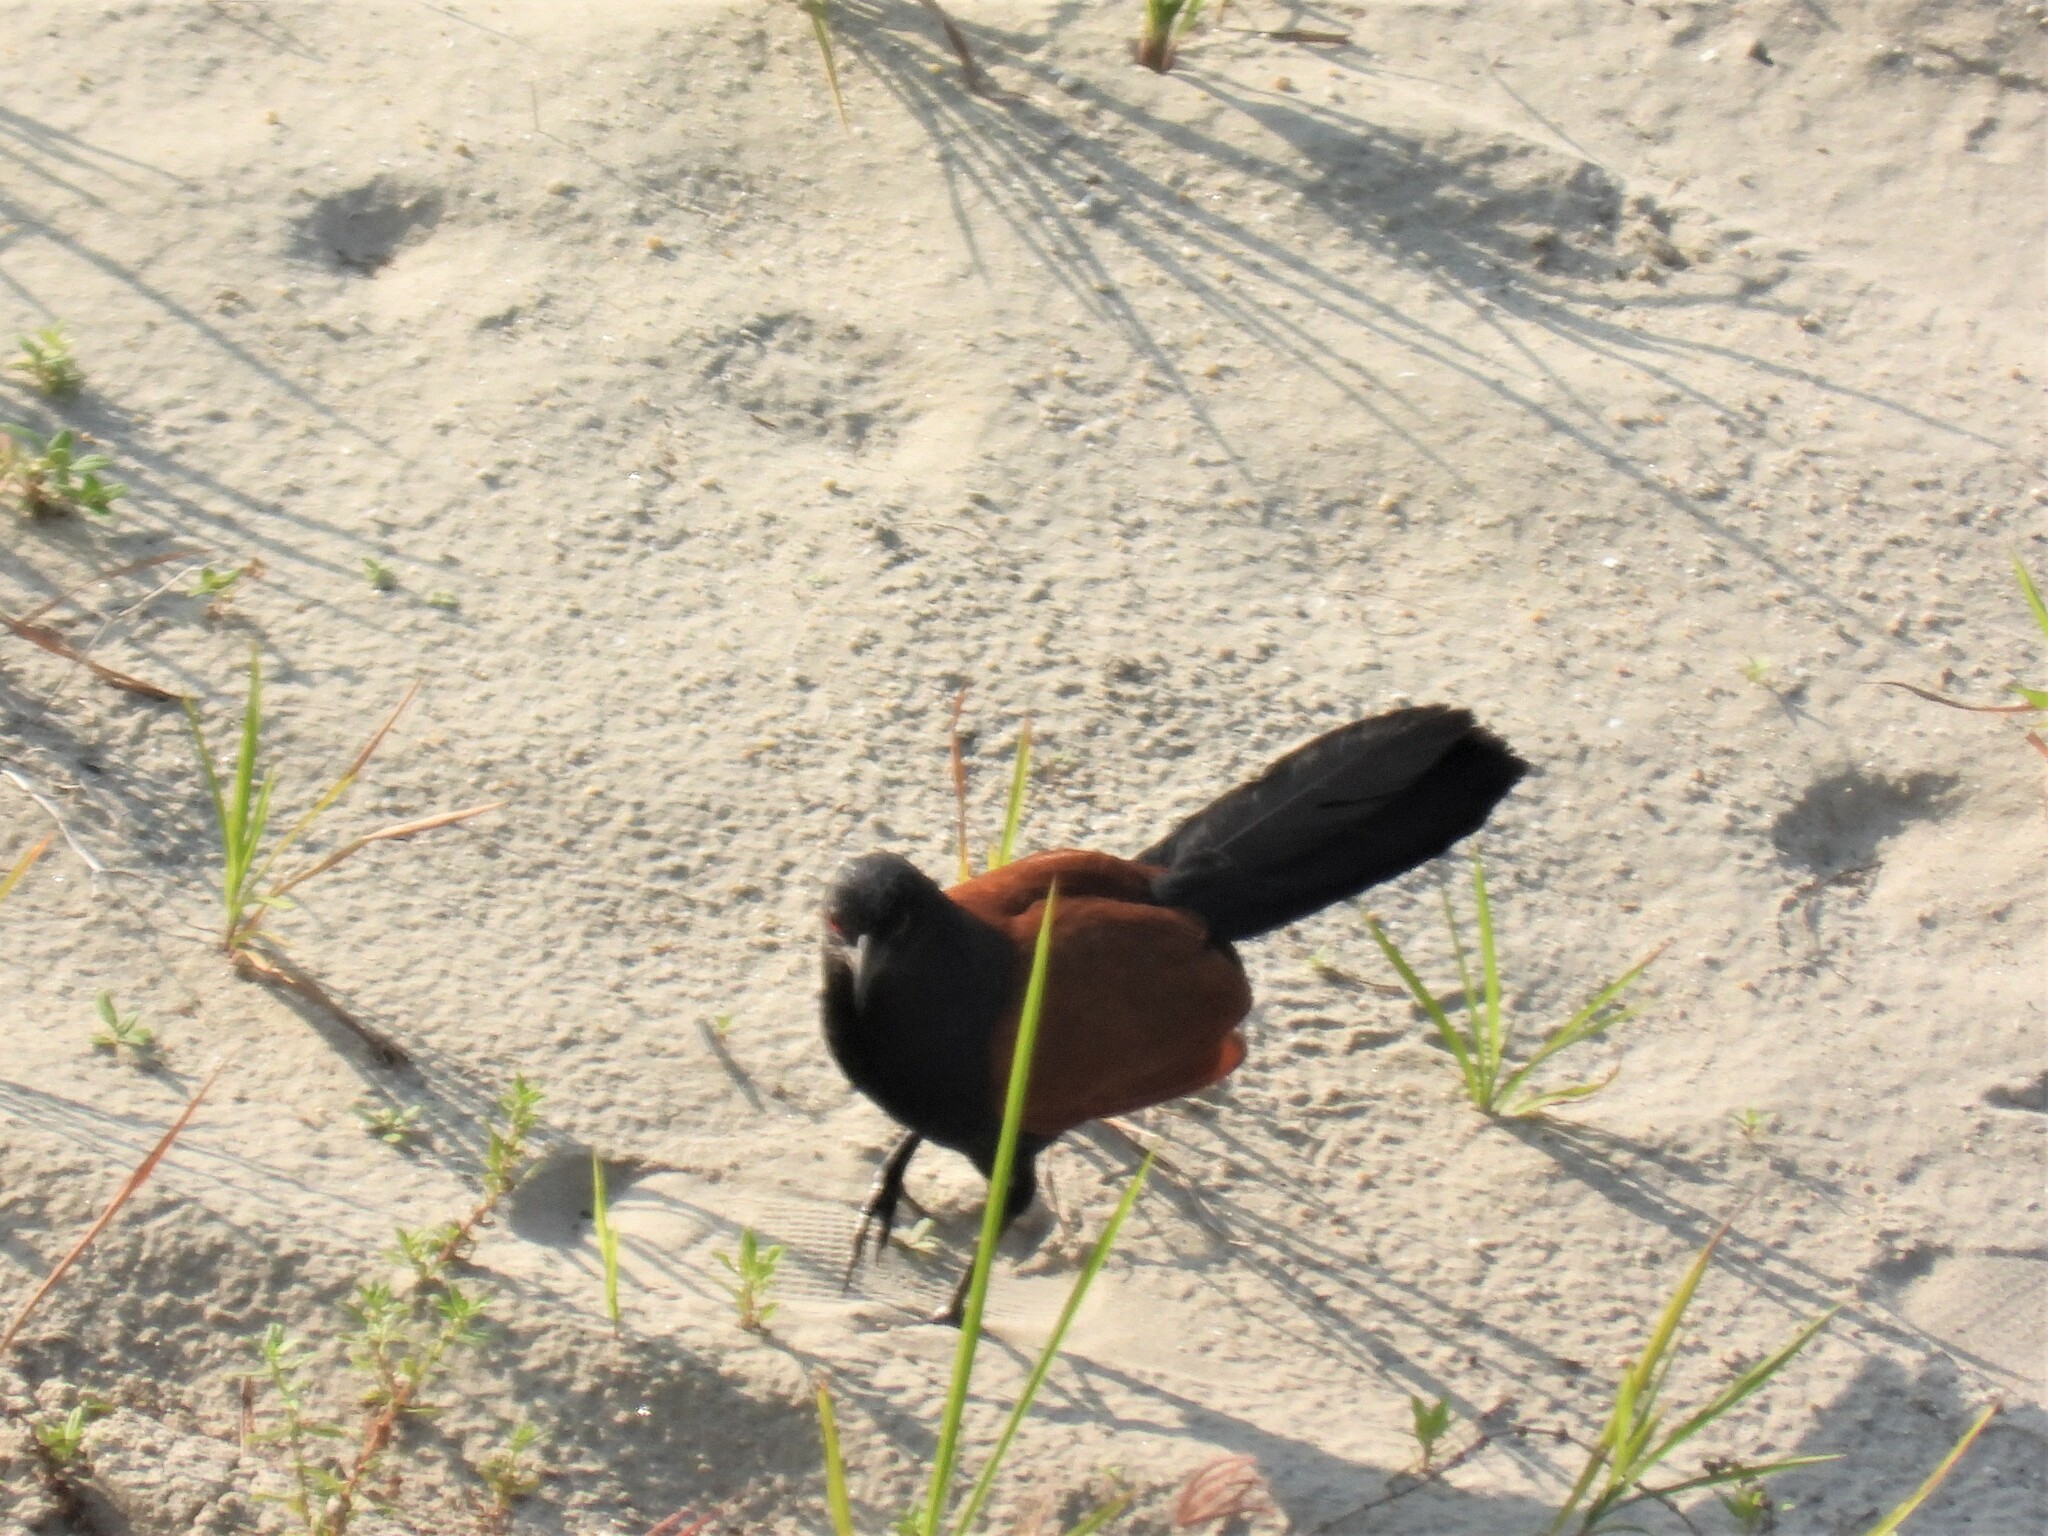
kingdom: Animalia
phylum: Chordata
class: Aves
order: Cuculiformes
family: Cuculidae
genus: Centropus
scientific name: Centropus sinensis
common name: Greater coucal
